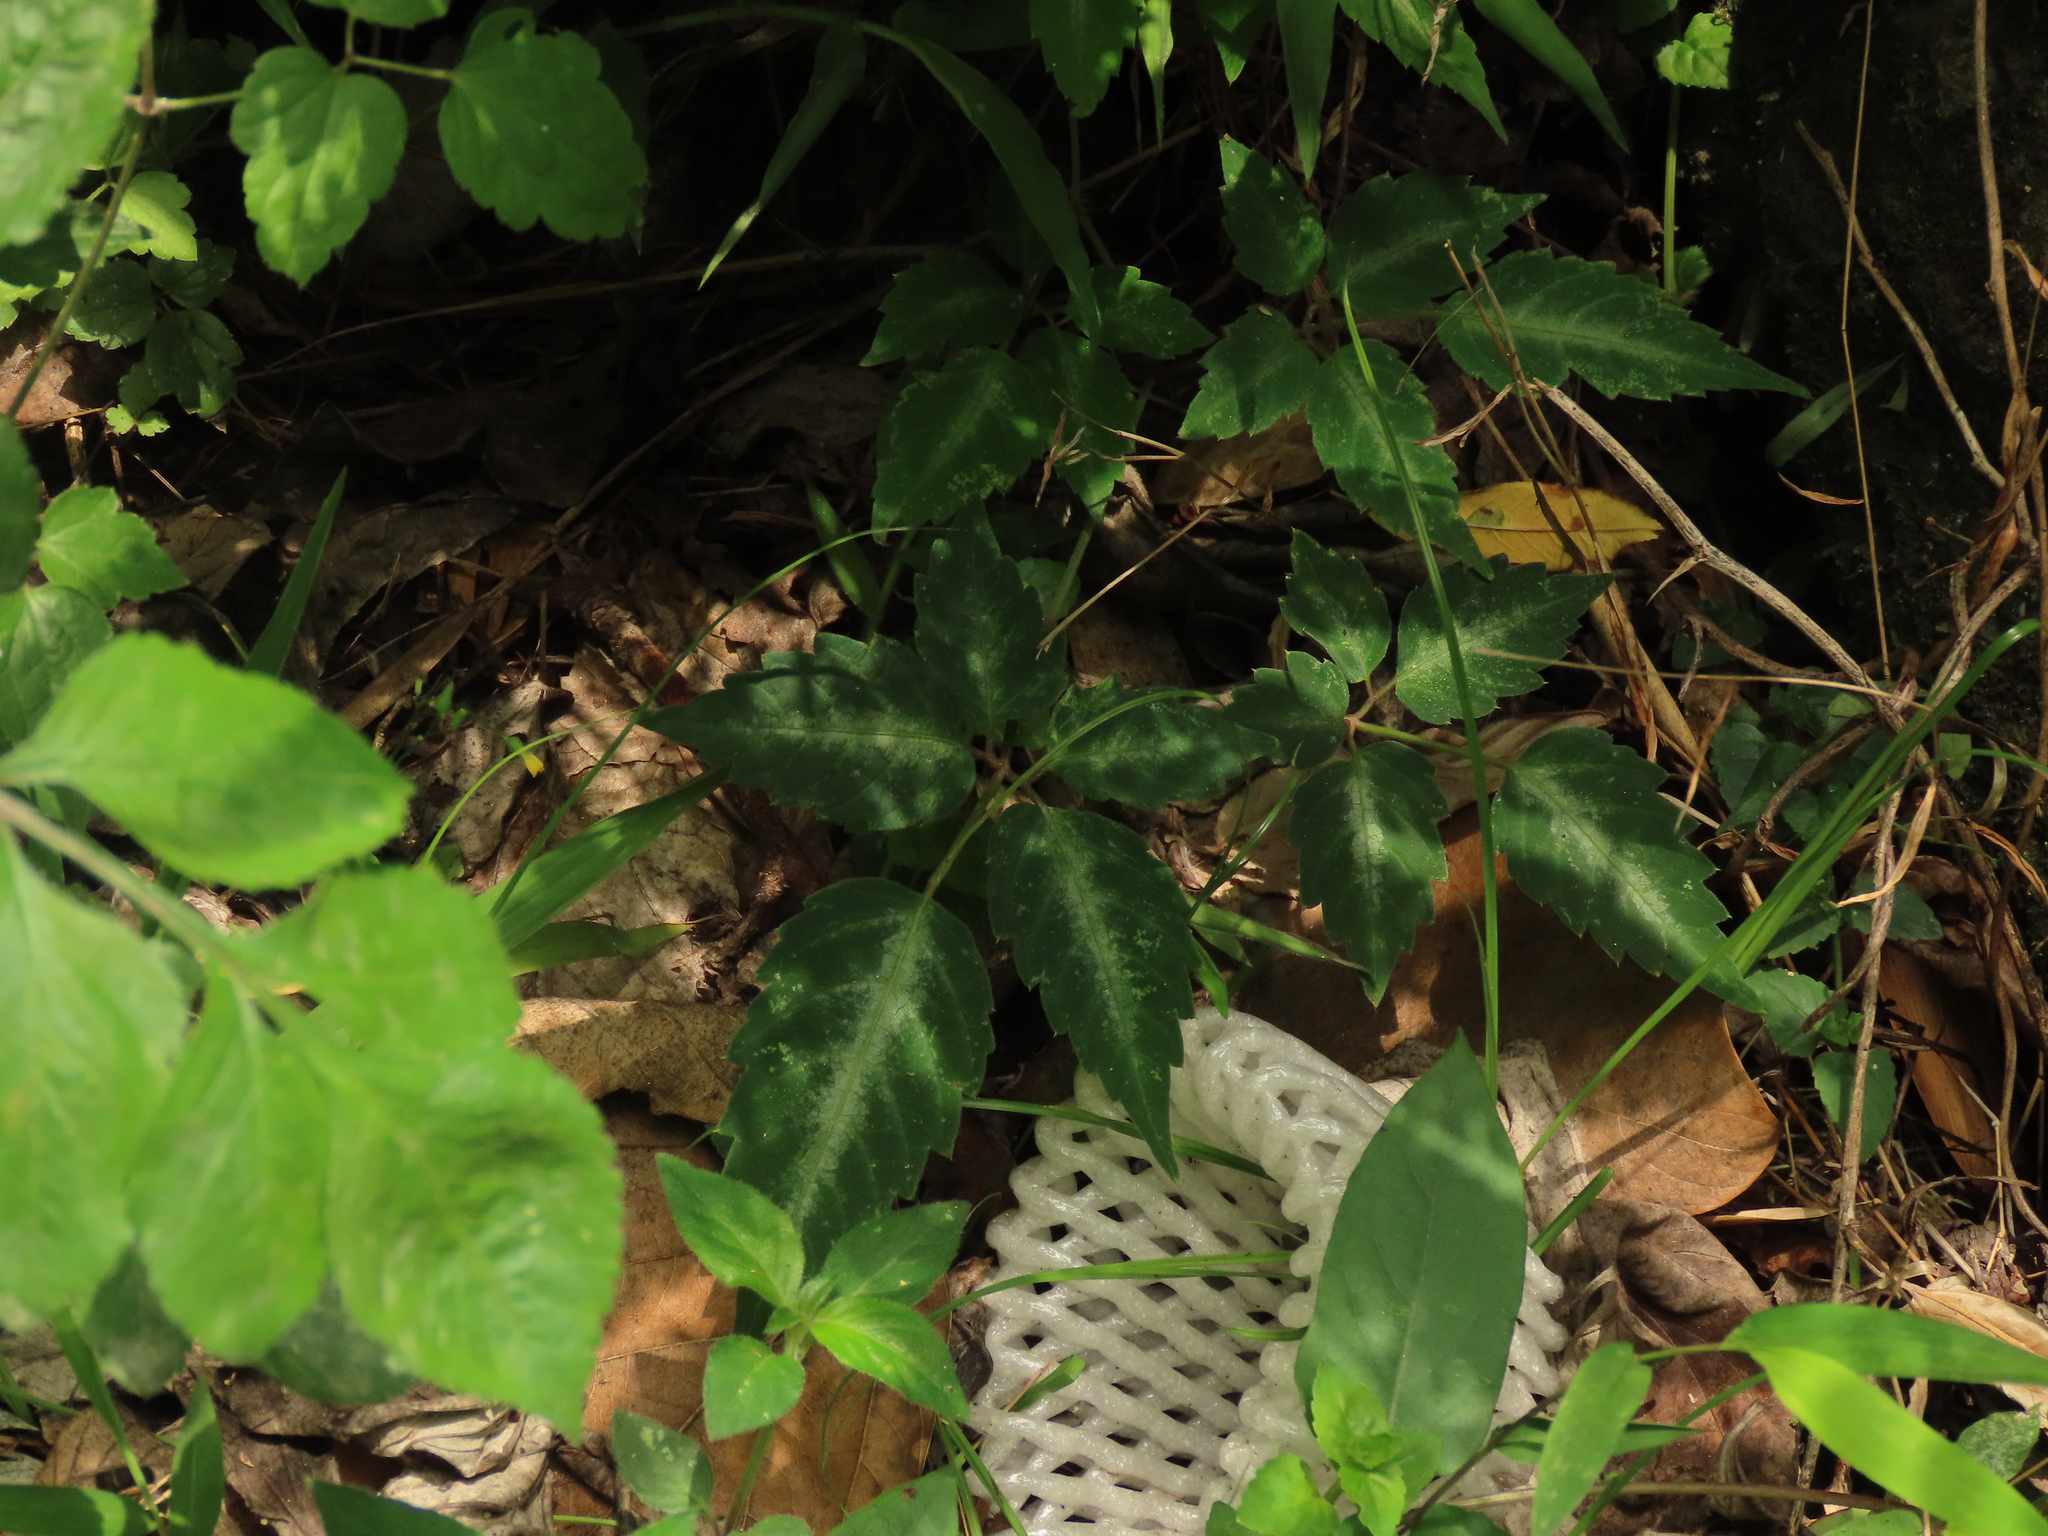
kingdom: Plantae
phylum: Tracheophyta
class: Magnoliopsida
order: Vitales
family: Vitaceae
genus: Pseudocayratia
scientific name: Pseudocayratia pengiana
